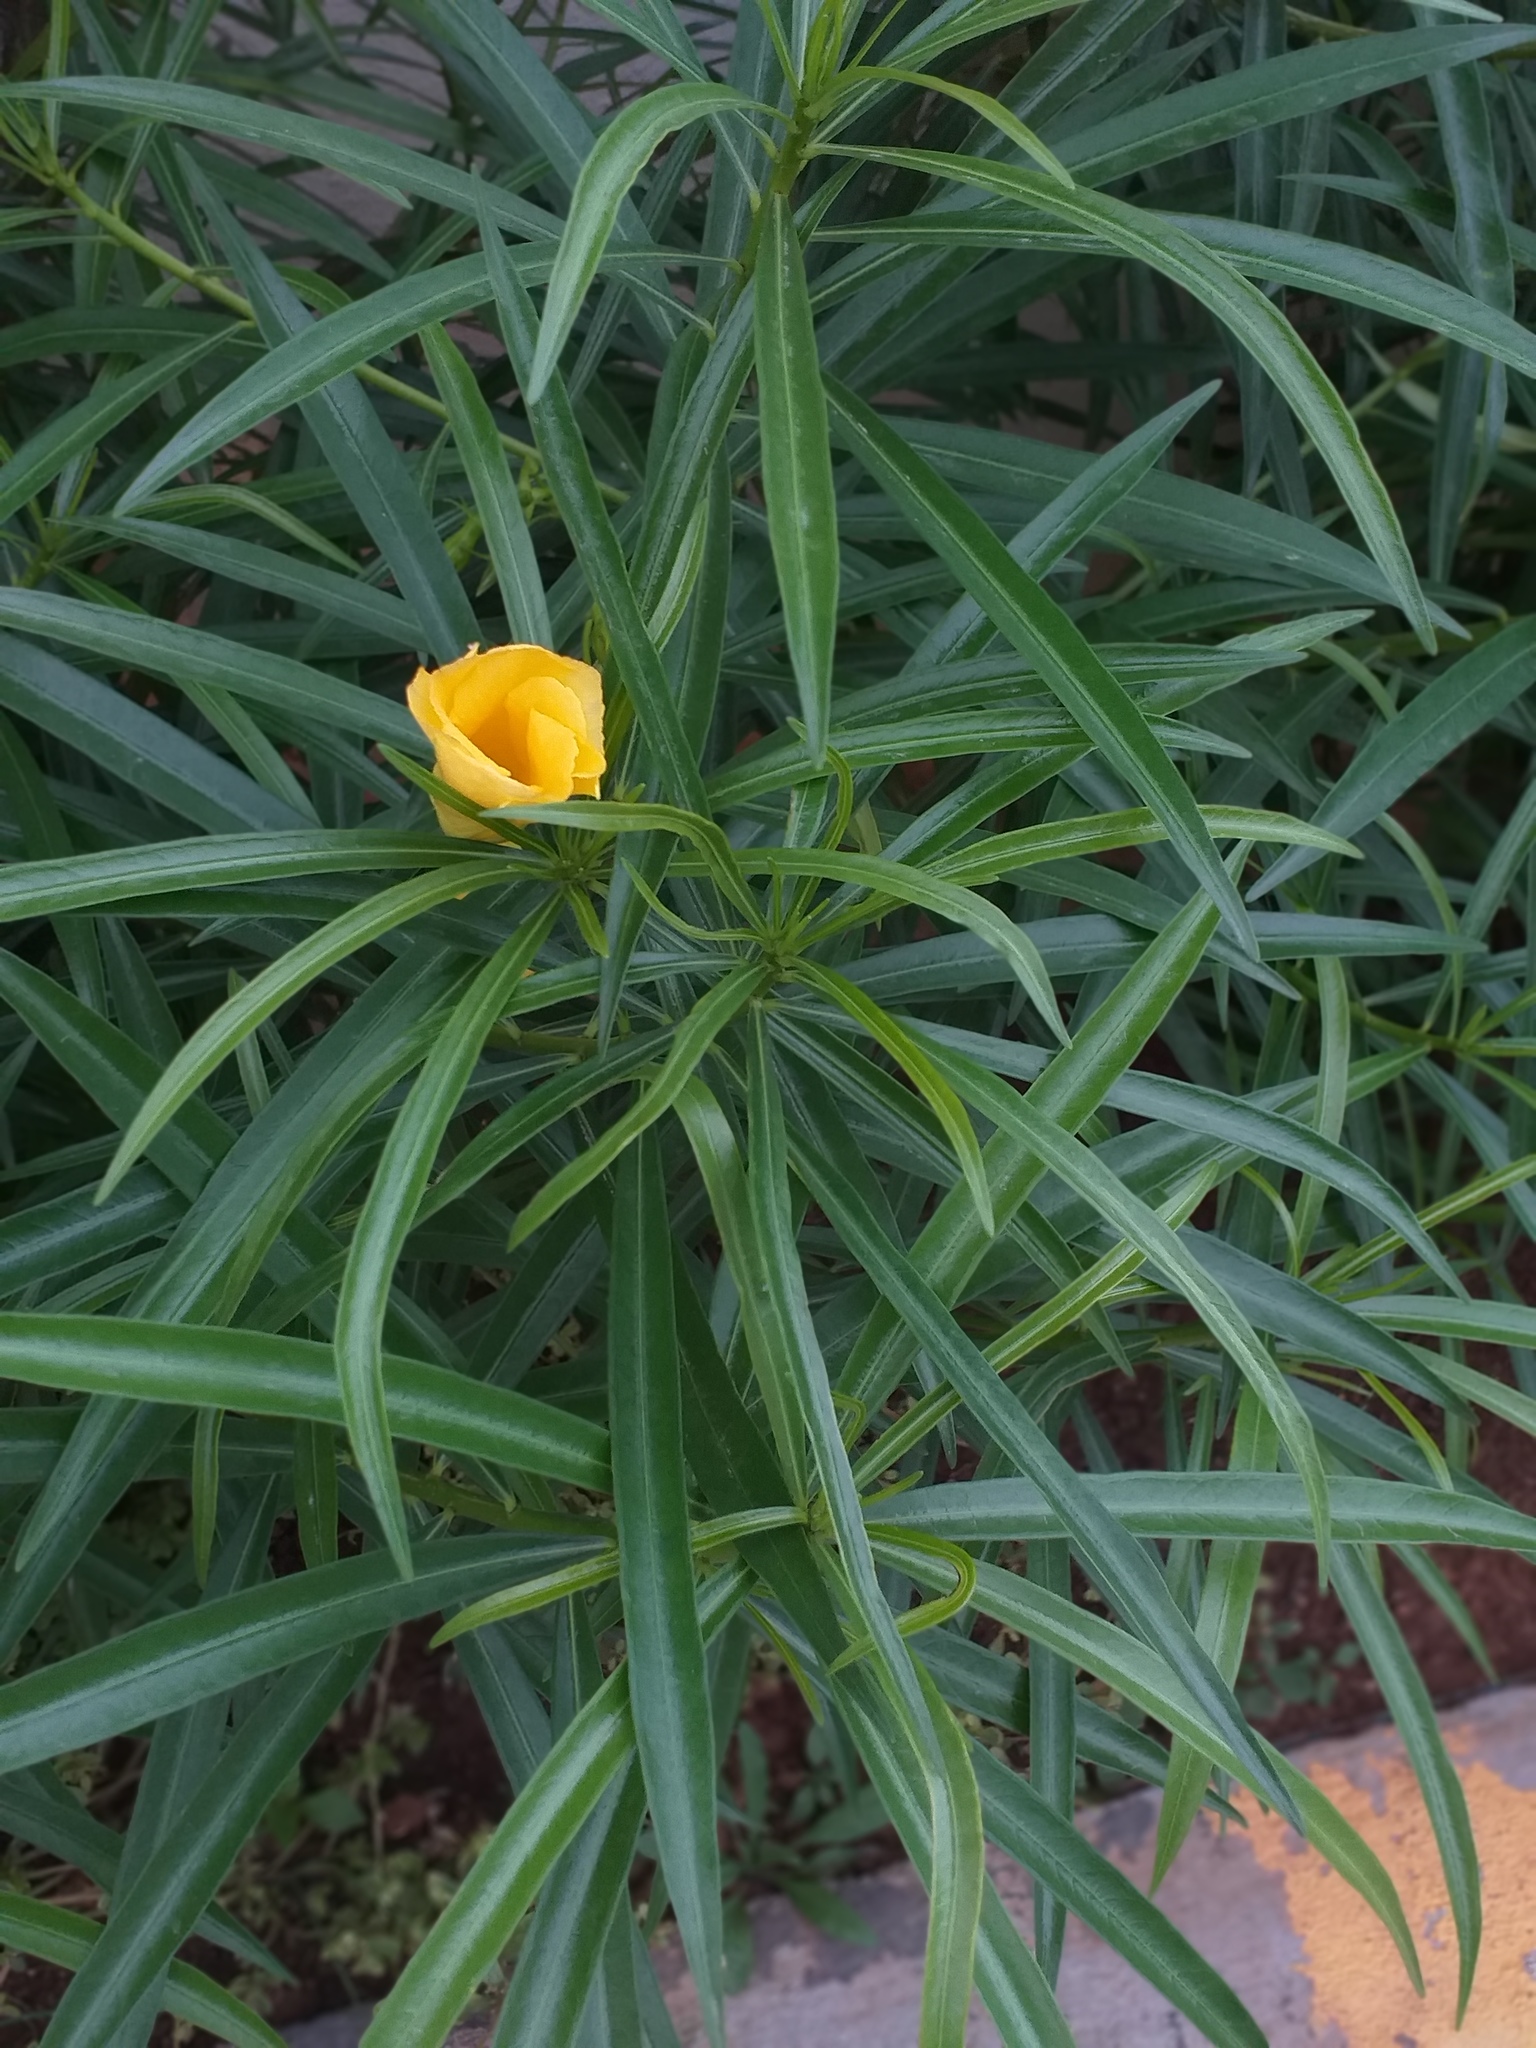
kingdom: Plantae
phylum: Tracheophyta
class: Magnoliopsida
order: Gentianales
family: Apocynaceae
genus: Cascabela
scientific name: Cascabela thevetia
